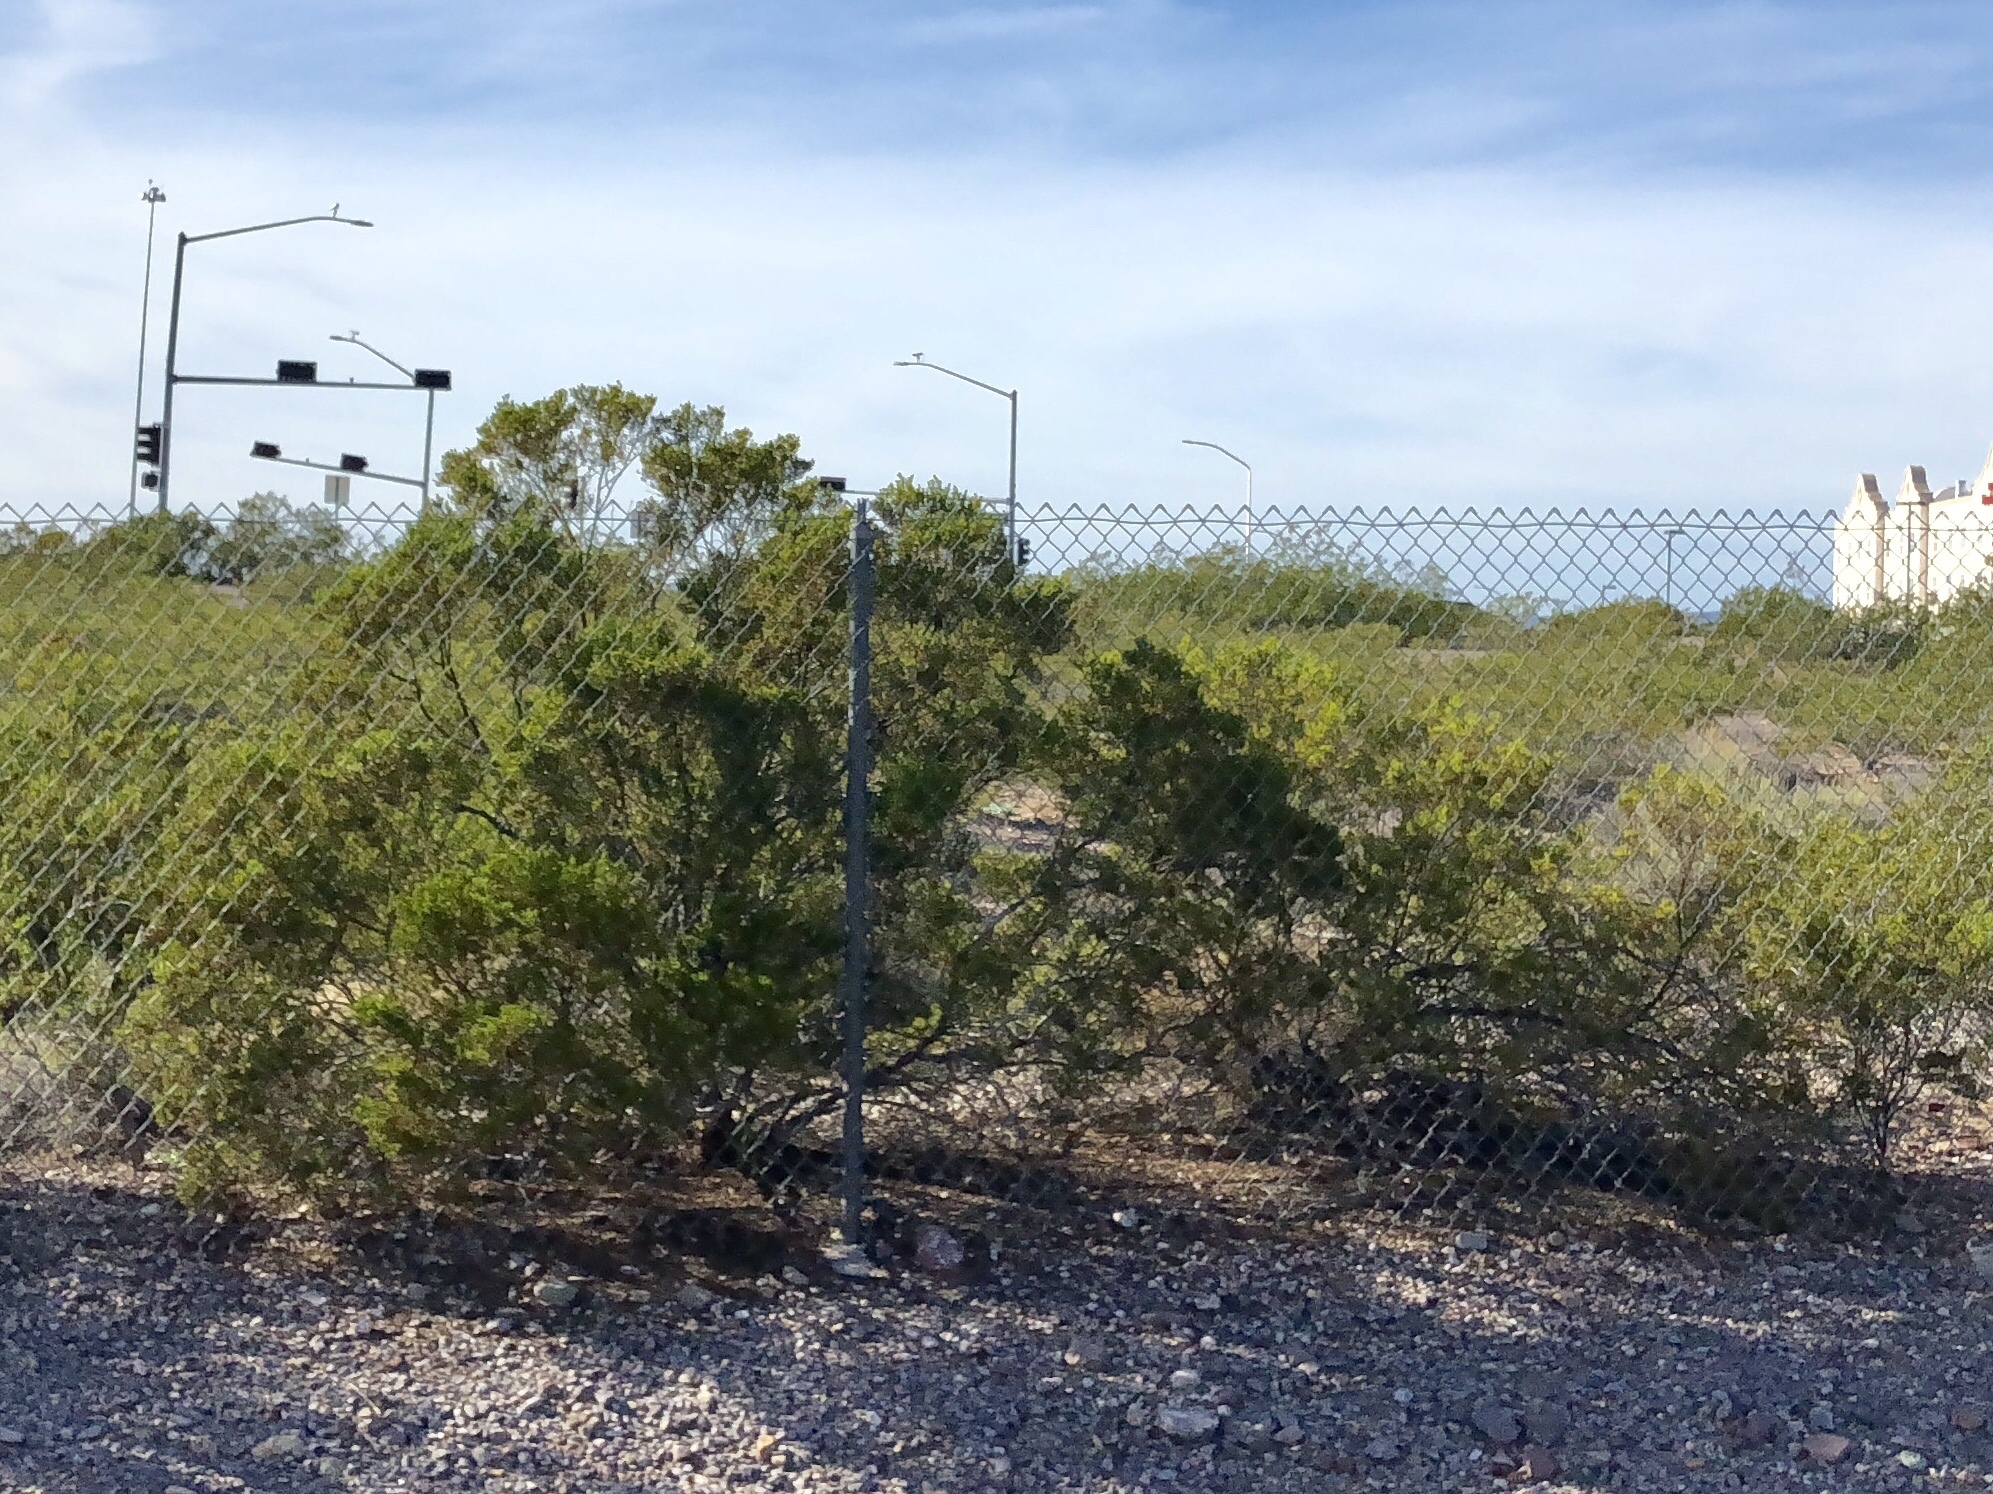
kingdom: Plantae
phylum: Tracheophyta
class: Magnoliopsida
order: Zygophyllales
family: Zygophyllaceae
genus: Larrea
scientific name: Larrea tridentata
